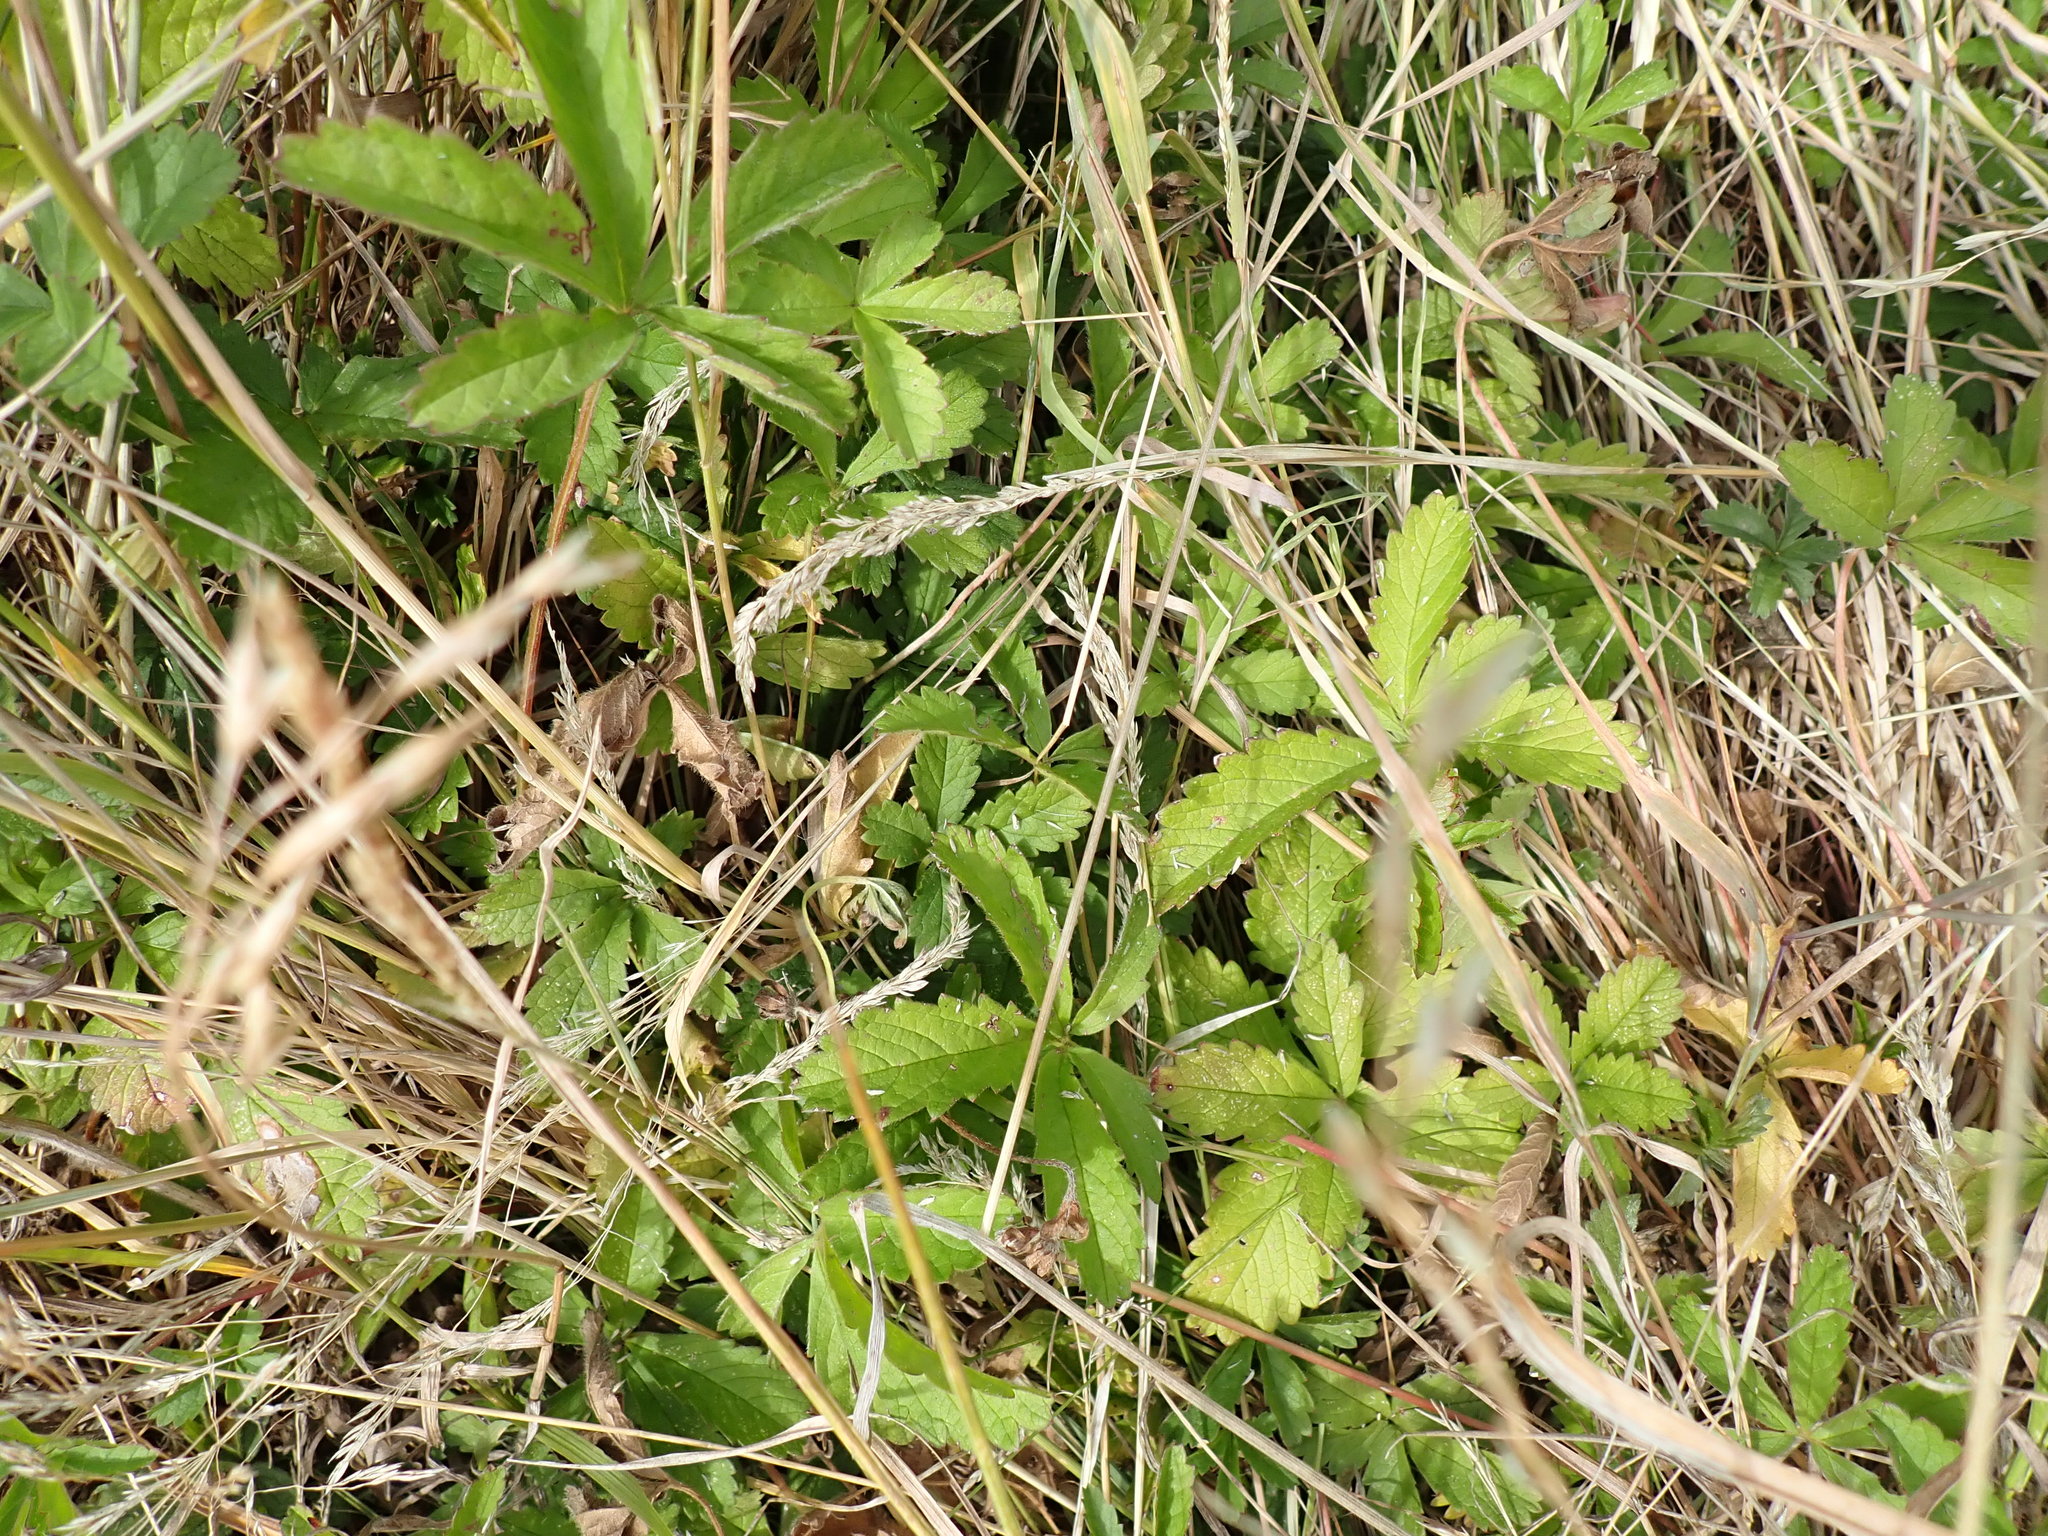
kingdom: Plantae
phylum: Tracheophyta
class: Magnoliopsida
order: Rosales
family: Rosaceae
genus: Potentilla
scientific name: Potentilla reptans
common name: Creeping cinquefoil
